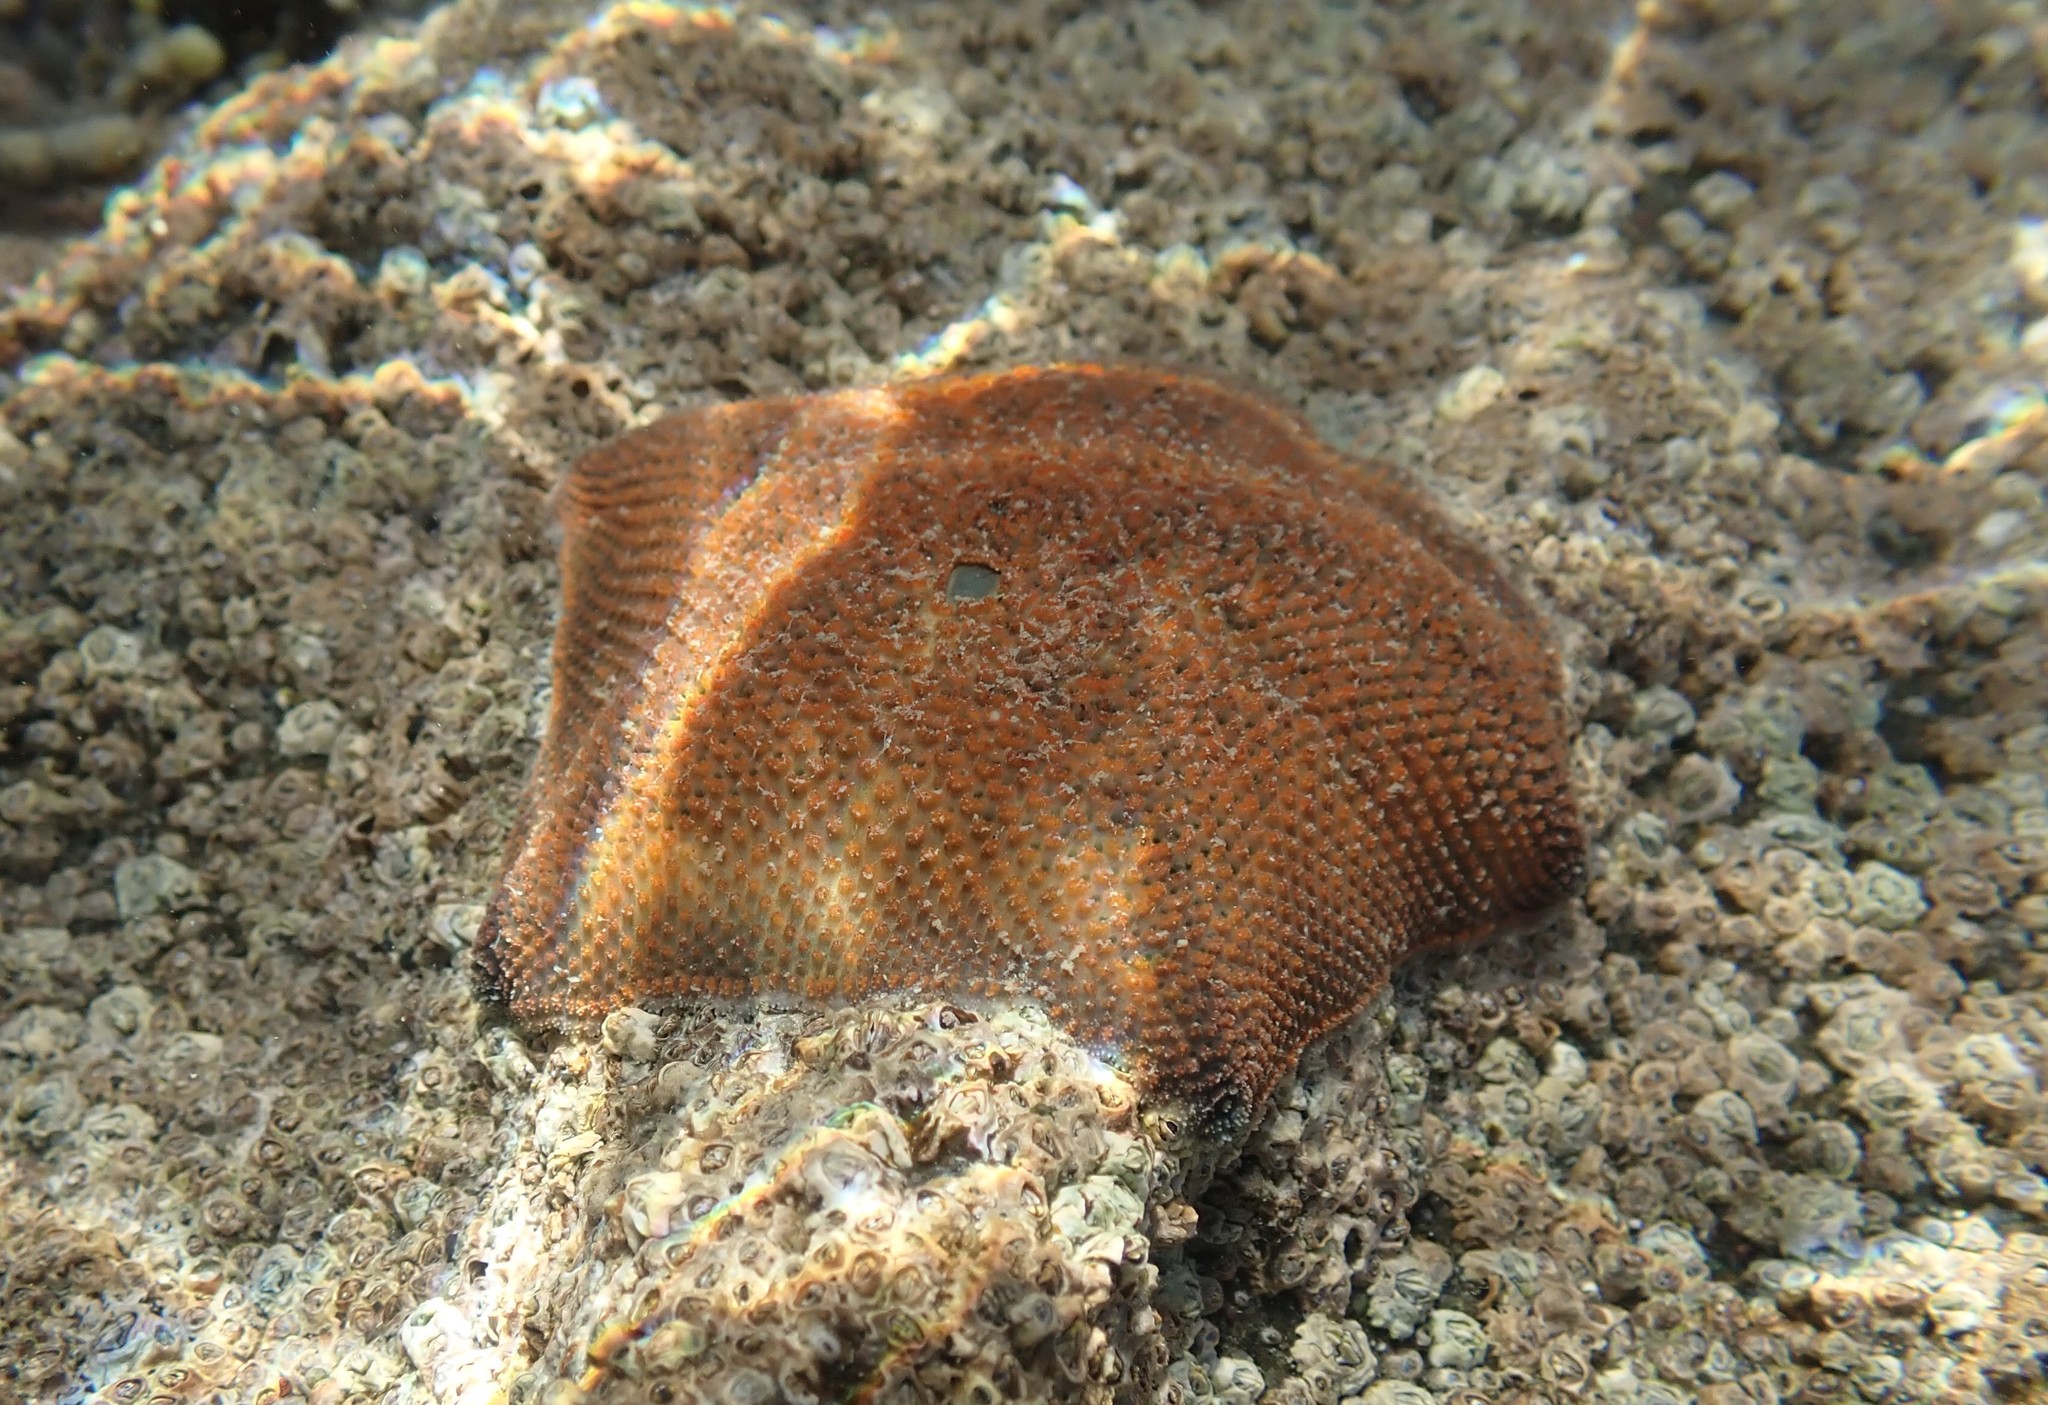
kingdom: Animalia
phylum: Echinodermata
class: Asteroidea
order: Valvatida
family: Asterinidae
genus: Patiriella
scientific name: Patiriella regularis
